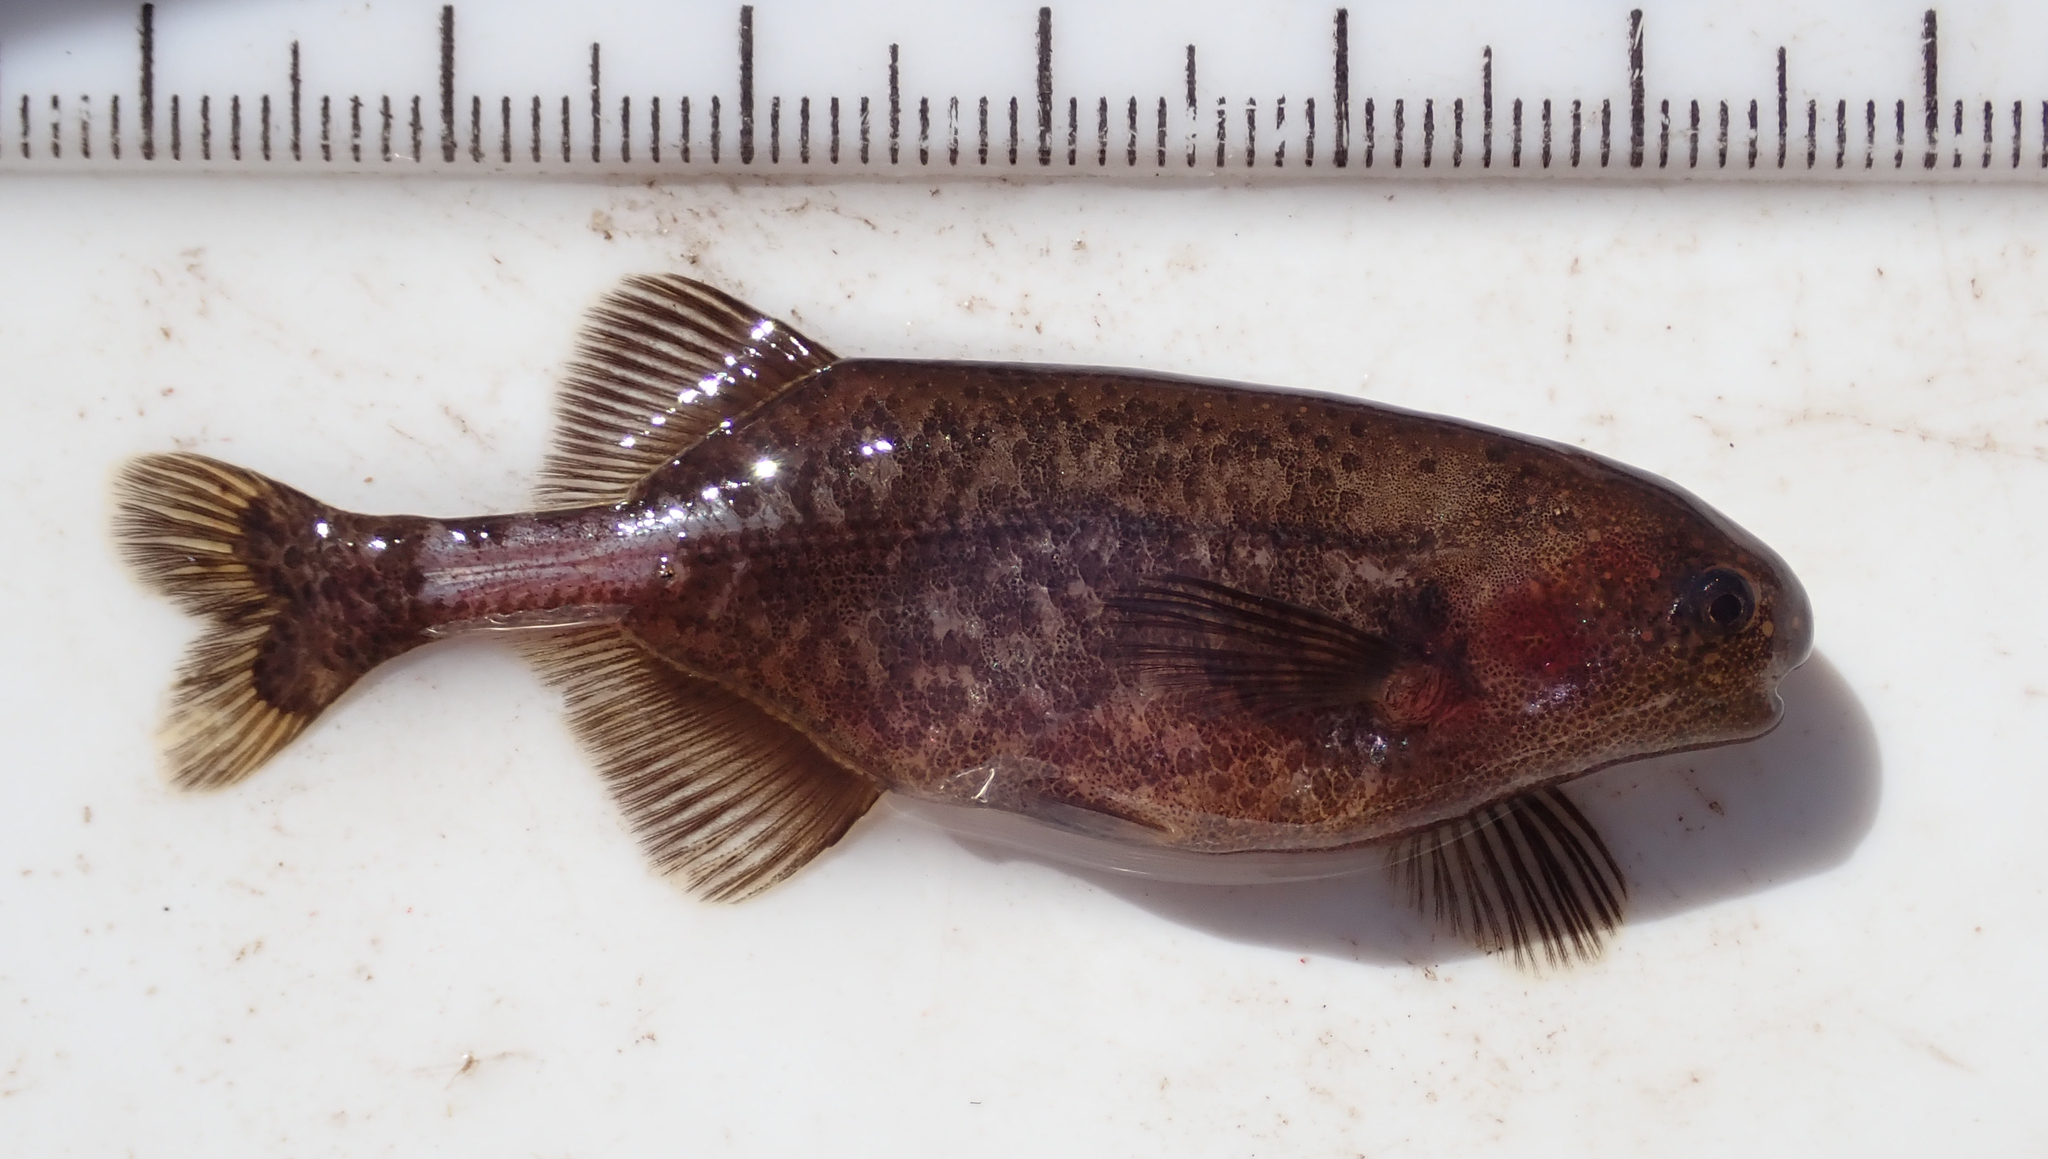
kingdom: Animalia
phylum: Chordata
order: Osteoglossiformes
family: Mormyridae
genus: Pollimyrus
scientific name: Pollimyrus cuandoensis
